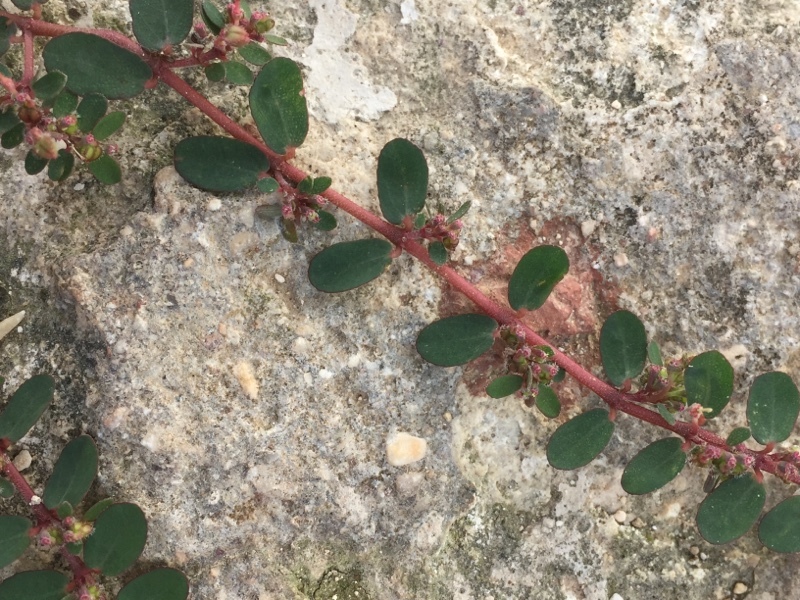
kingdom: Plantae
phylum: Tracheophyta
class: Magnoliopsida
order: Malpighiales
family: Euphorbiaceae
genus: Euphorbia
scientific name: Euphorbia prostrata
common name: Prostrate sandmat
